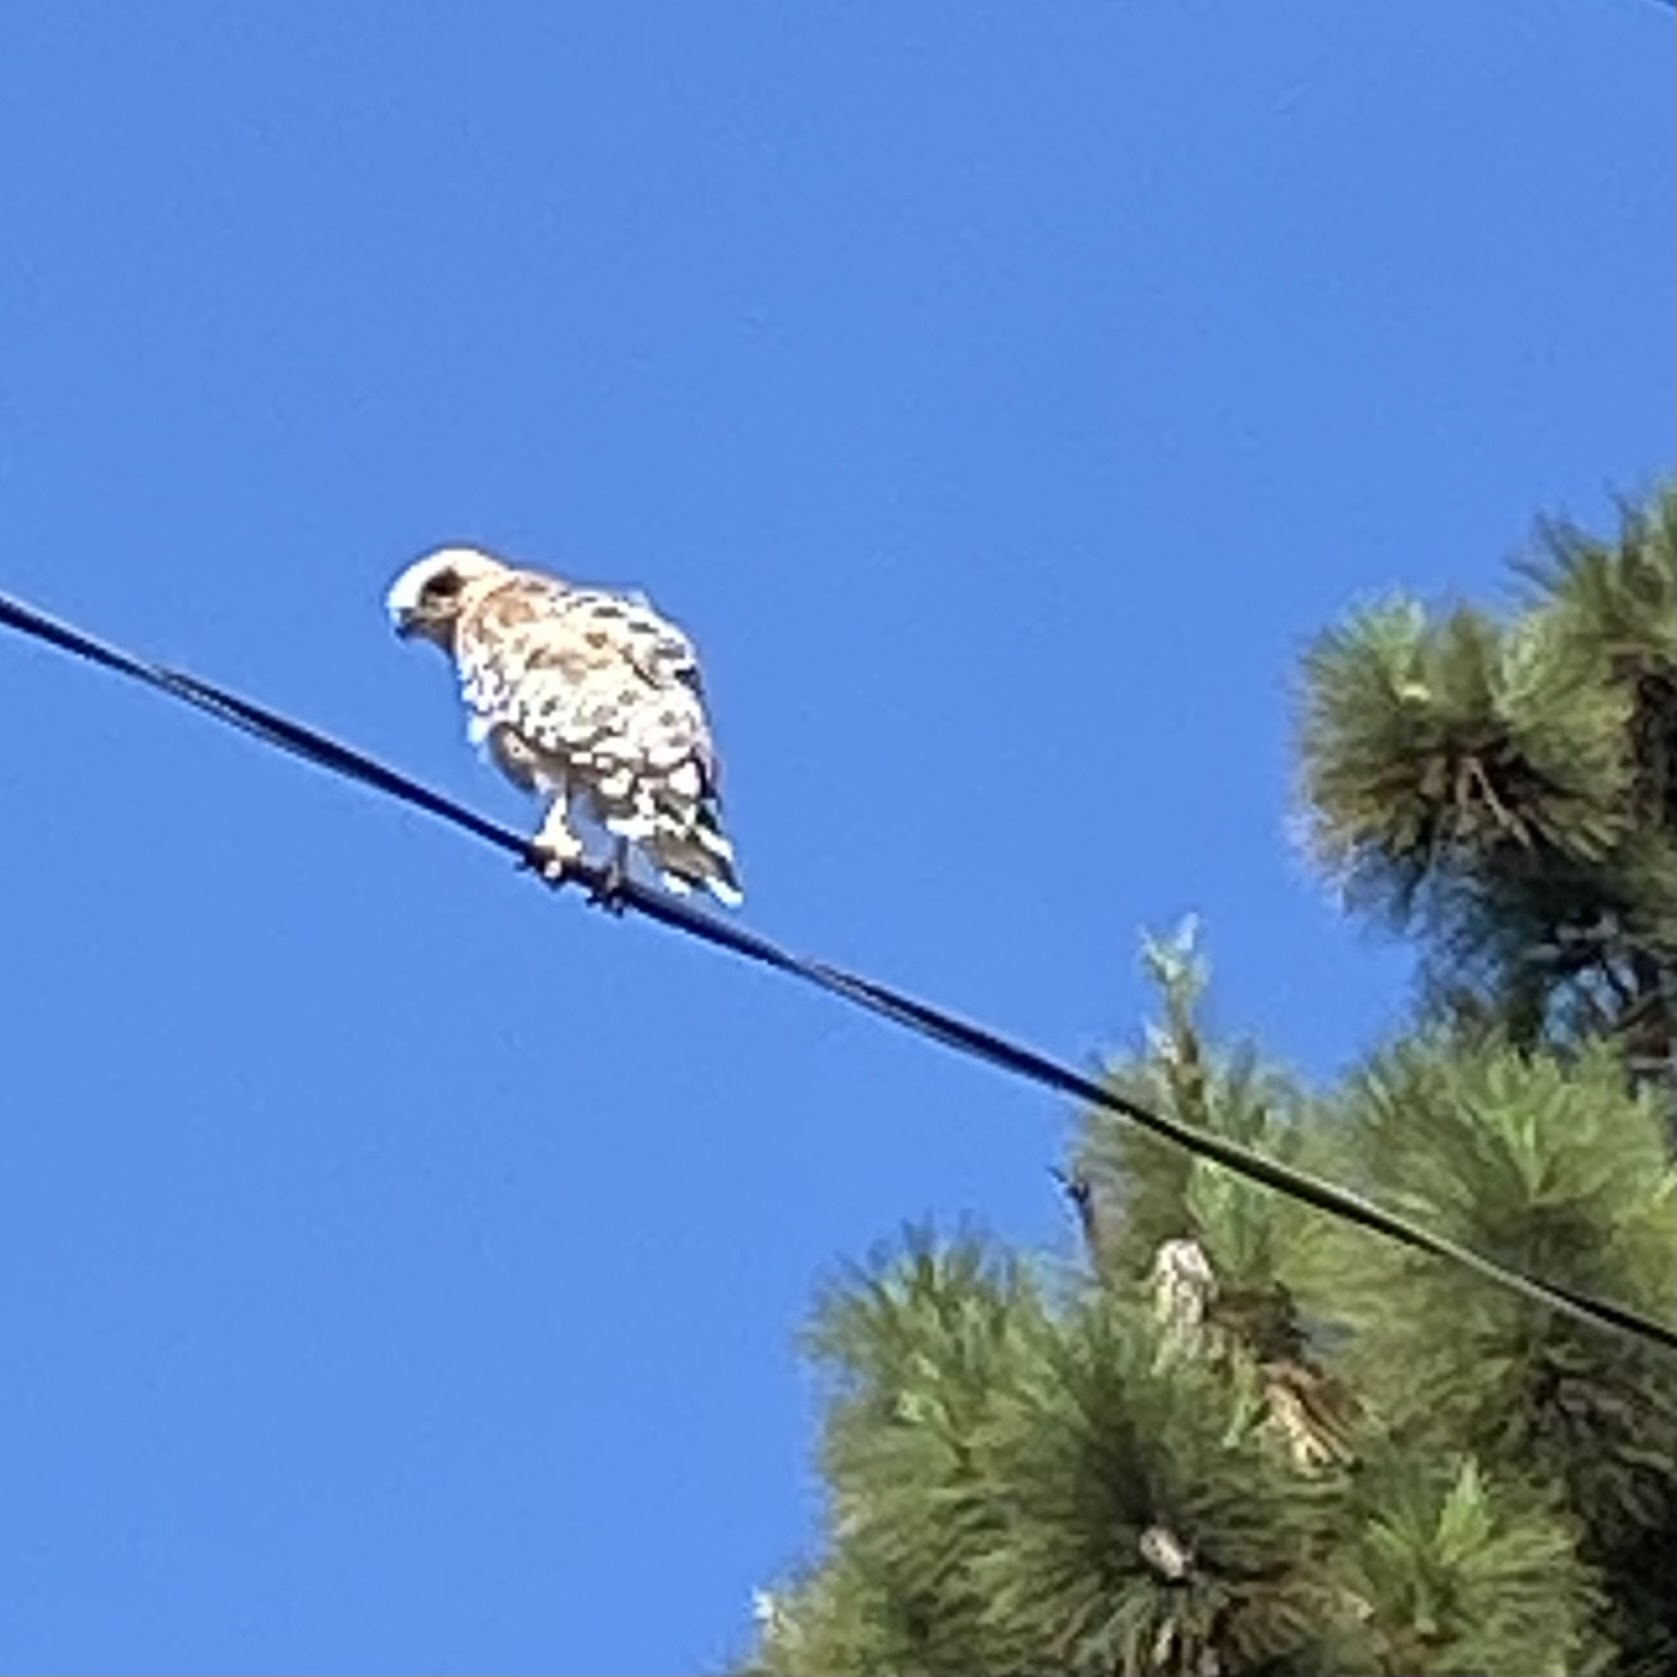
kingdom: Animalia
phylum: Chordata
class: Aves
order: Accipitriformes
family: Accipitridae
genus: Buteo
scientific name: Buteo lineatus
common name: Red-shouldered hawk
